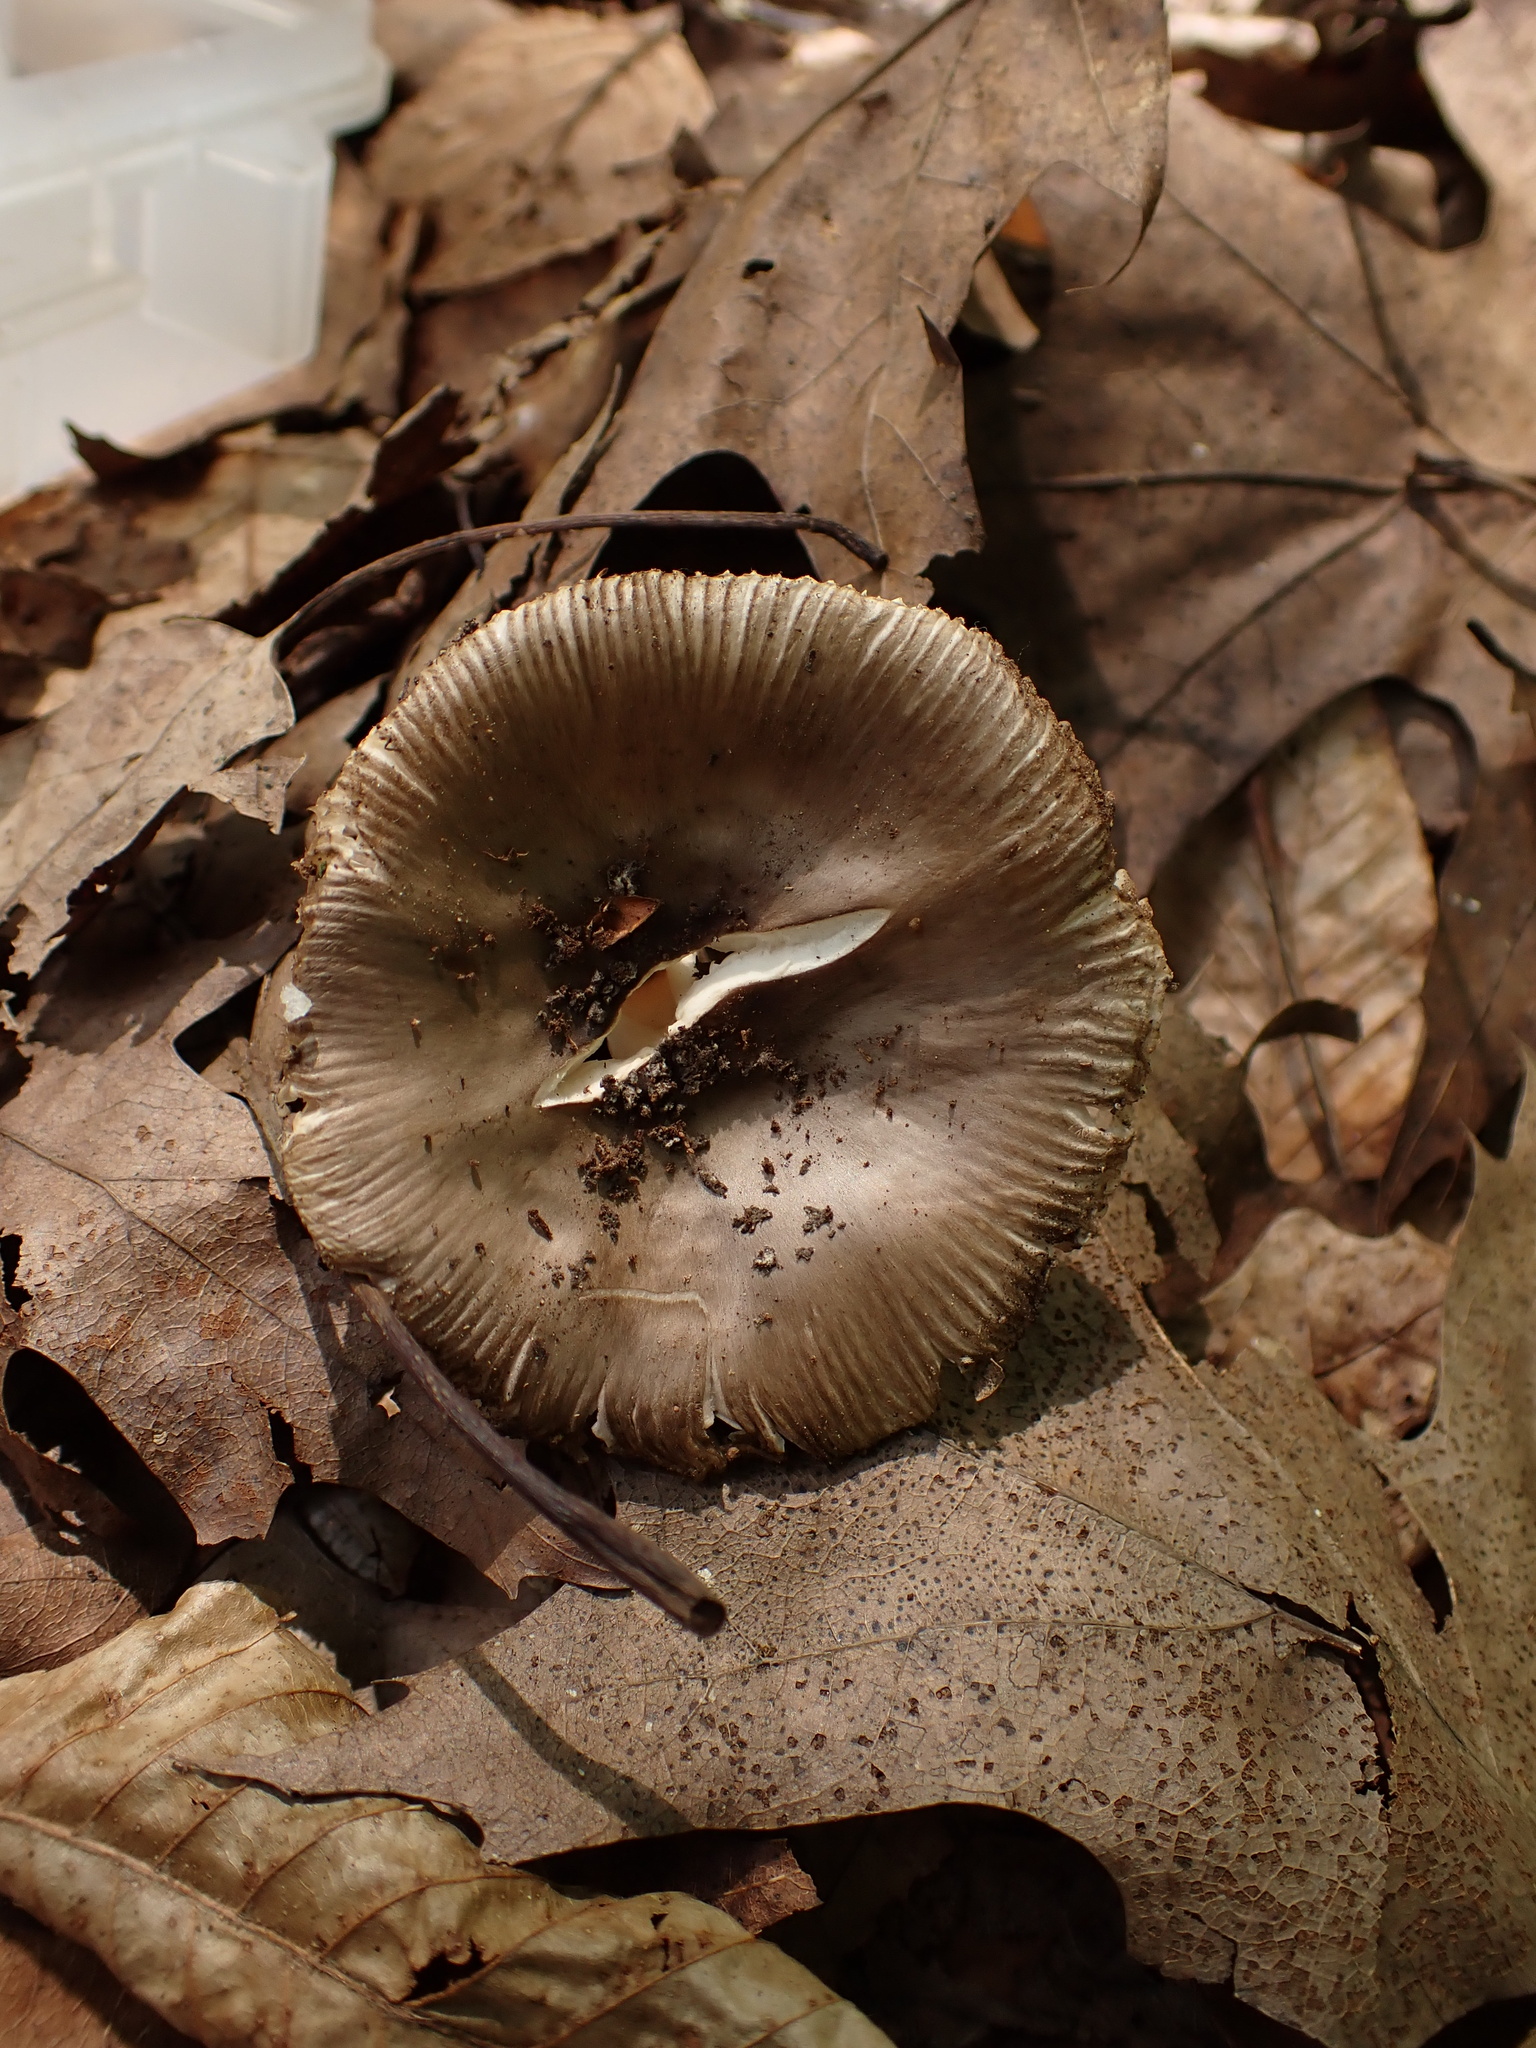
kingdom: Fungi
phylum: Basidiomycota
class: Agaricomycetes
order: Agaricales
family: Amanitaceae
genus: Amanita
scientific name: Amanita rhacopus
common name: Shaggy legged ringless amanita
